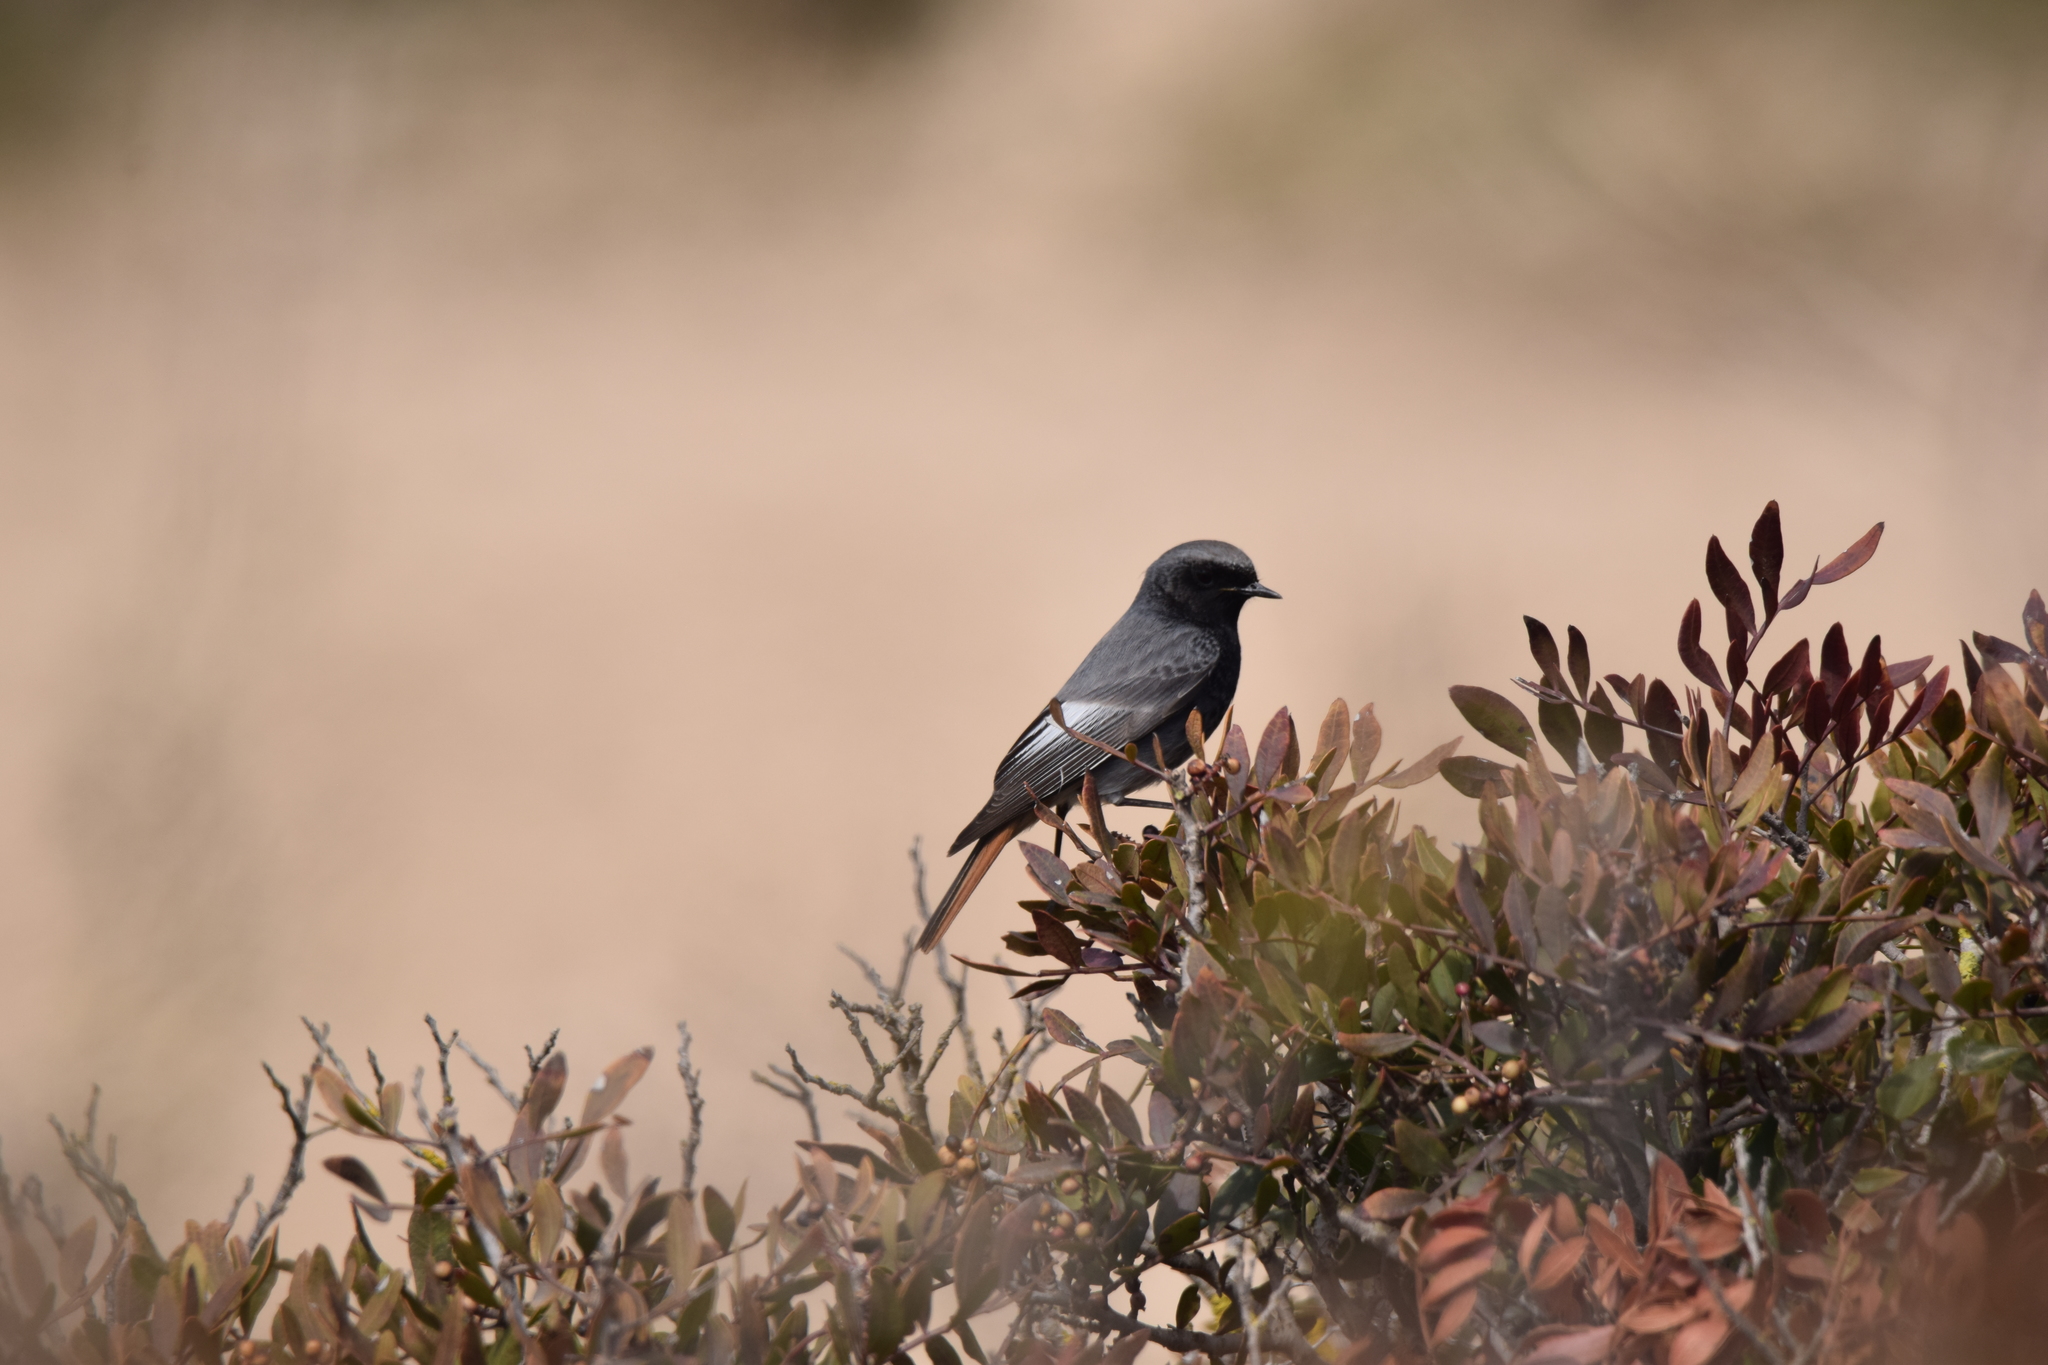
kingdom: Animalia
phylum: Chordata
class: Aves
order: Passeriformes
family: Muscicapidae
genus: Phoenicurus
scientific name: Phoenicurus ochruros
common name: Black redstart
